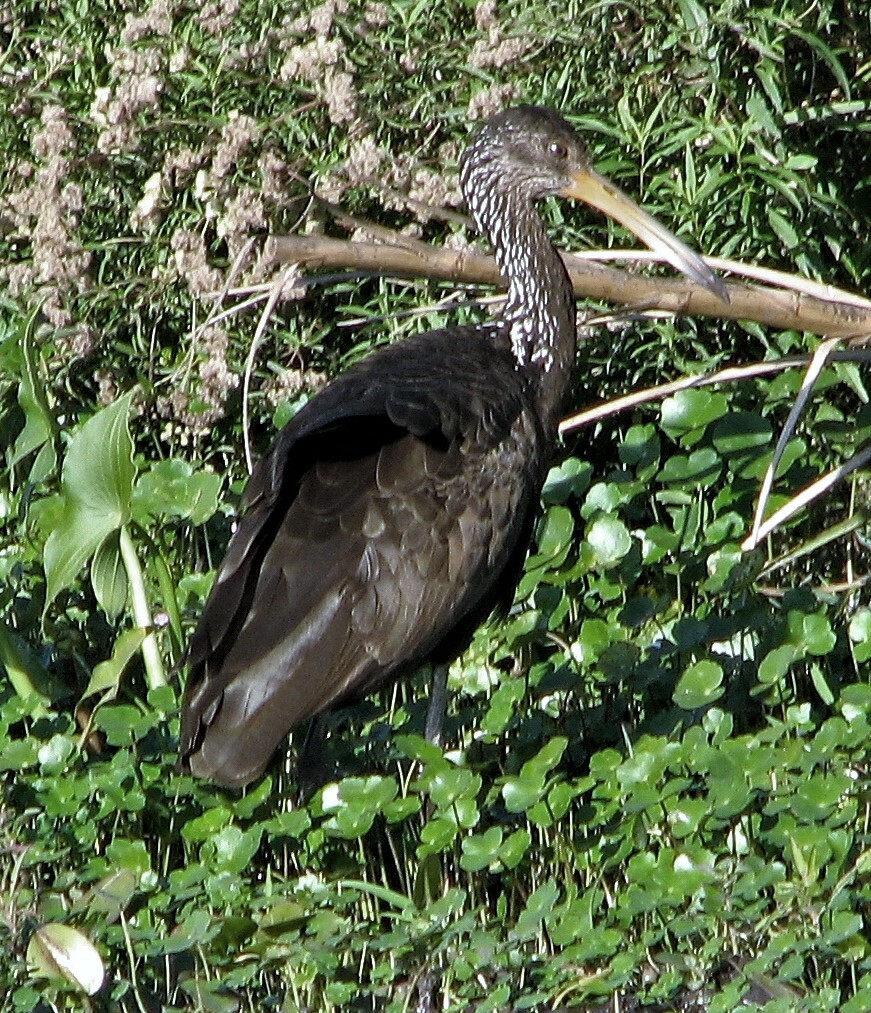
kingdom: Animalia
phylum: Chordata
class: Aves
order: Gruiformes
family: Aramidae
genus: Aramus
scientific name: Aramus guarauna
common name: Limpkin
